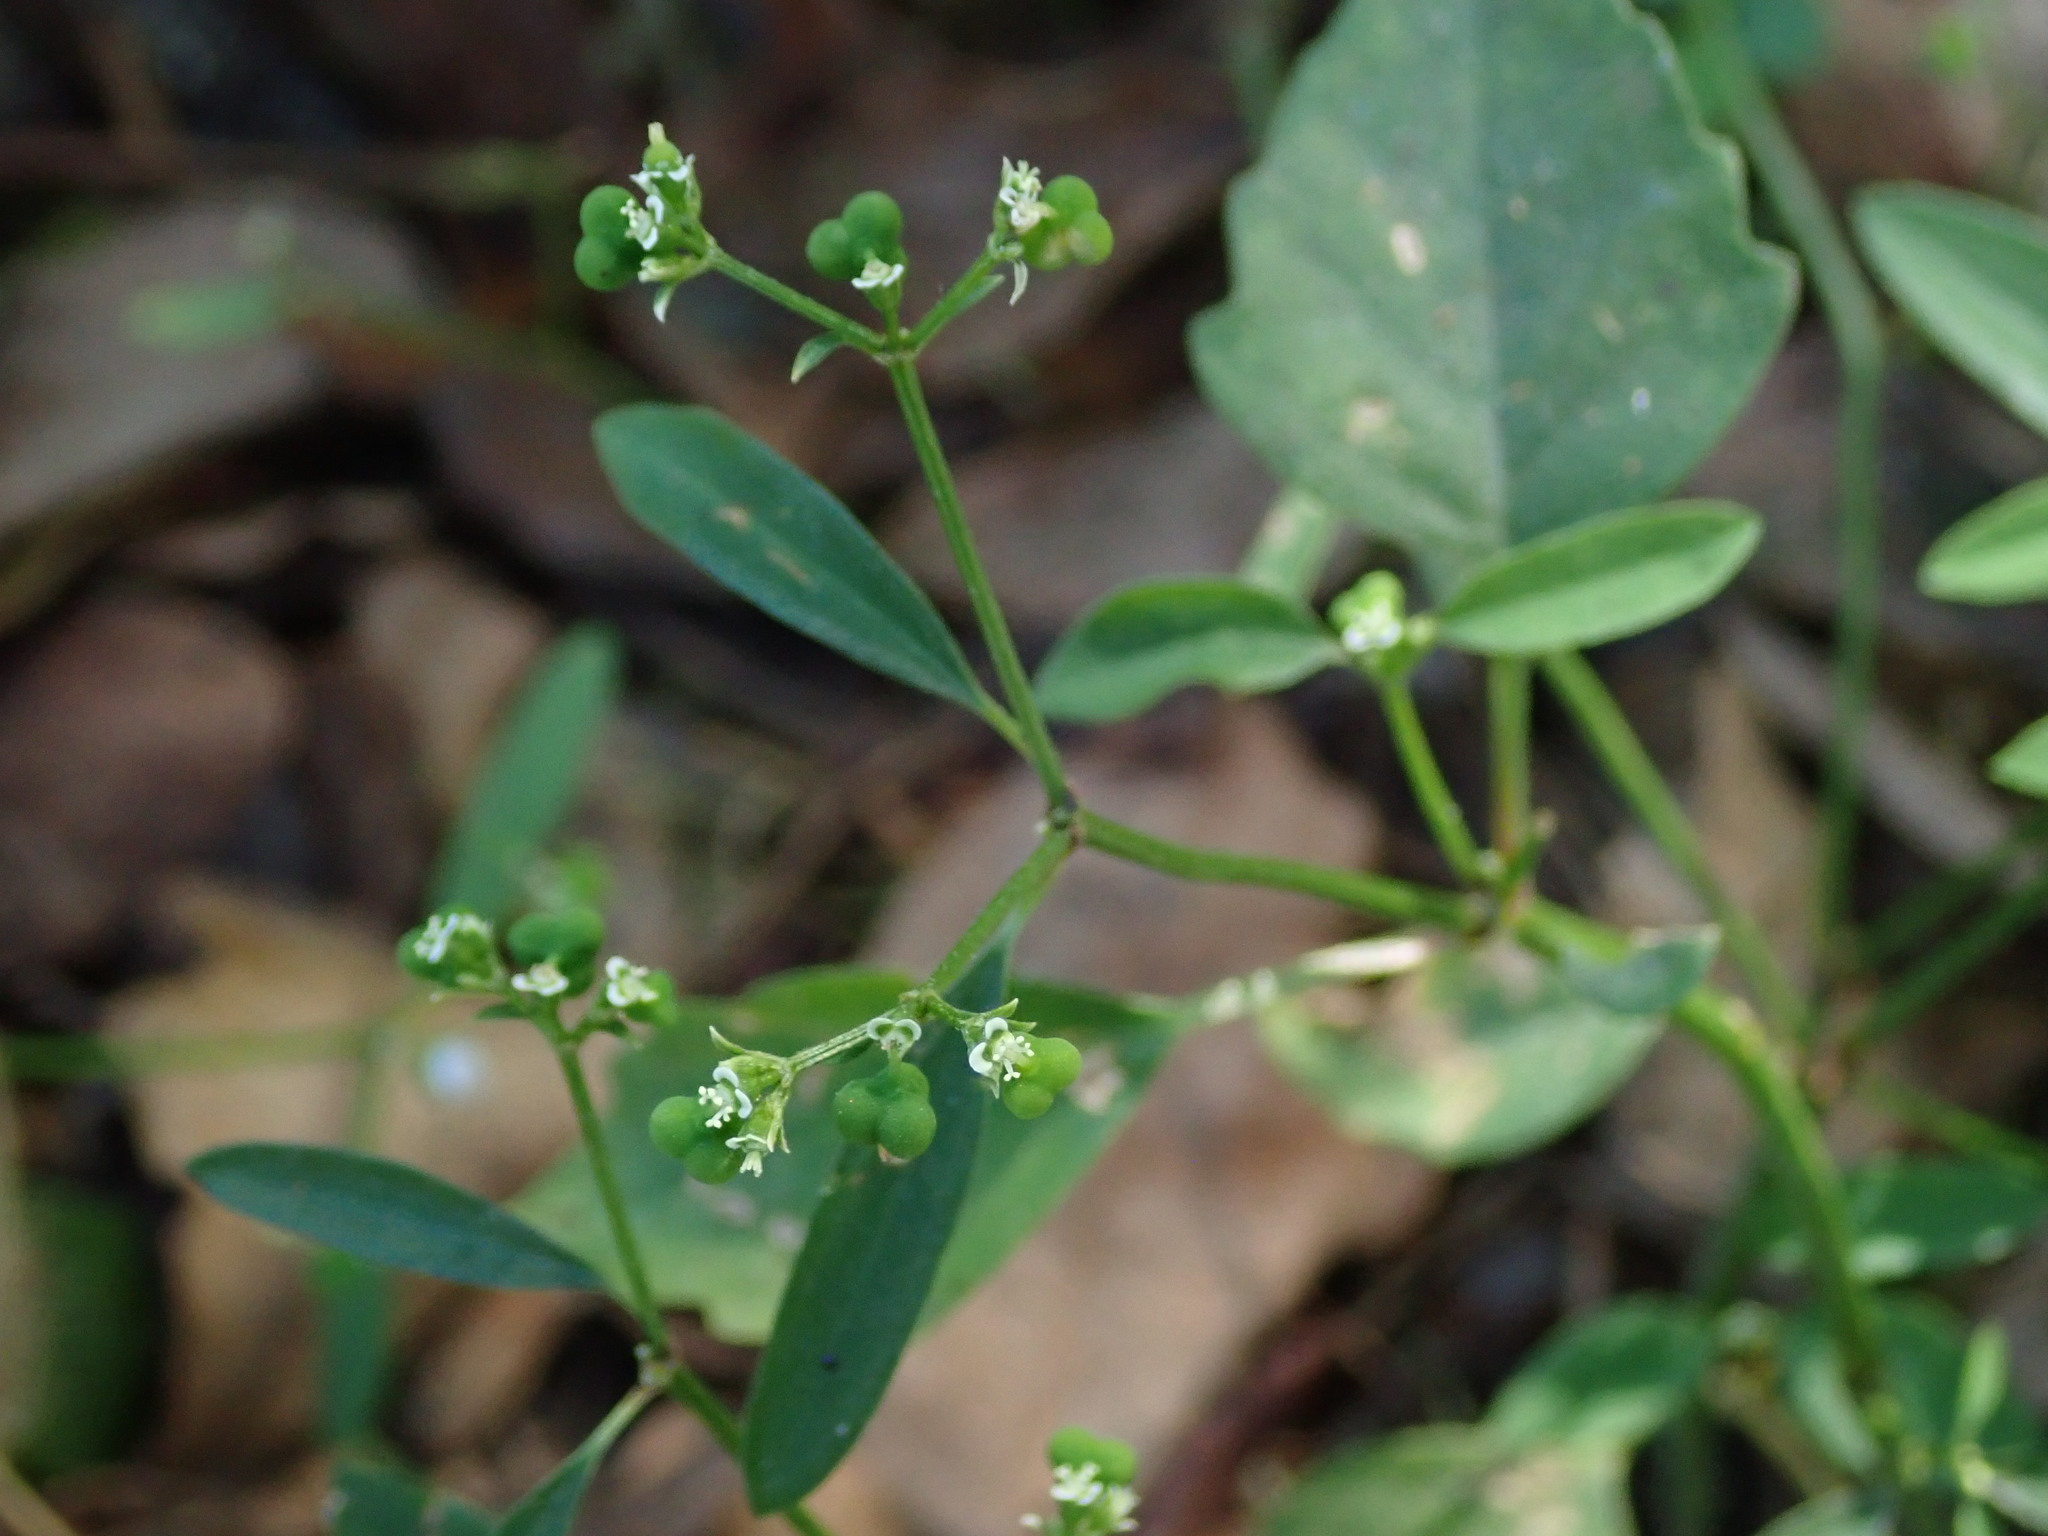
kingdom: Plantae
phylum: Tracheophyta
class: Magnoliopsida
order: Malpighiales
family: Euphorbiaceae
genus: Euphorbia
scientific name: Euphorbia graminea
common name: Grassleaf spurge
